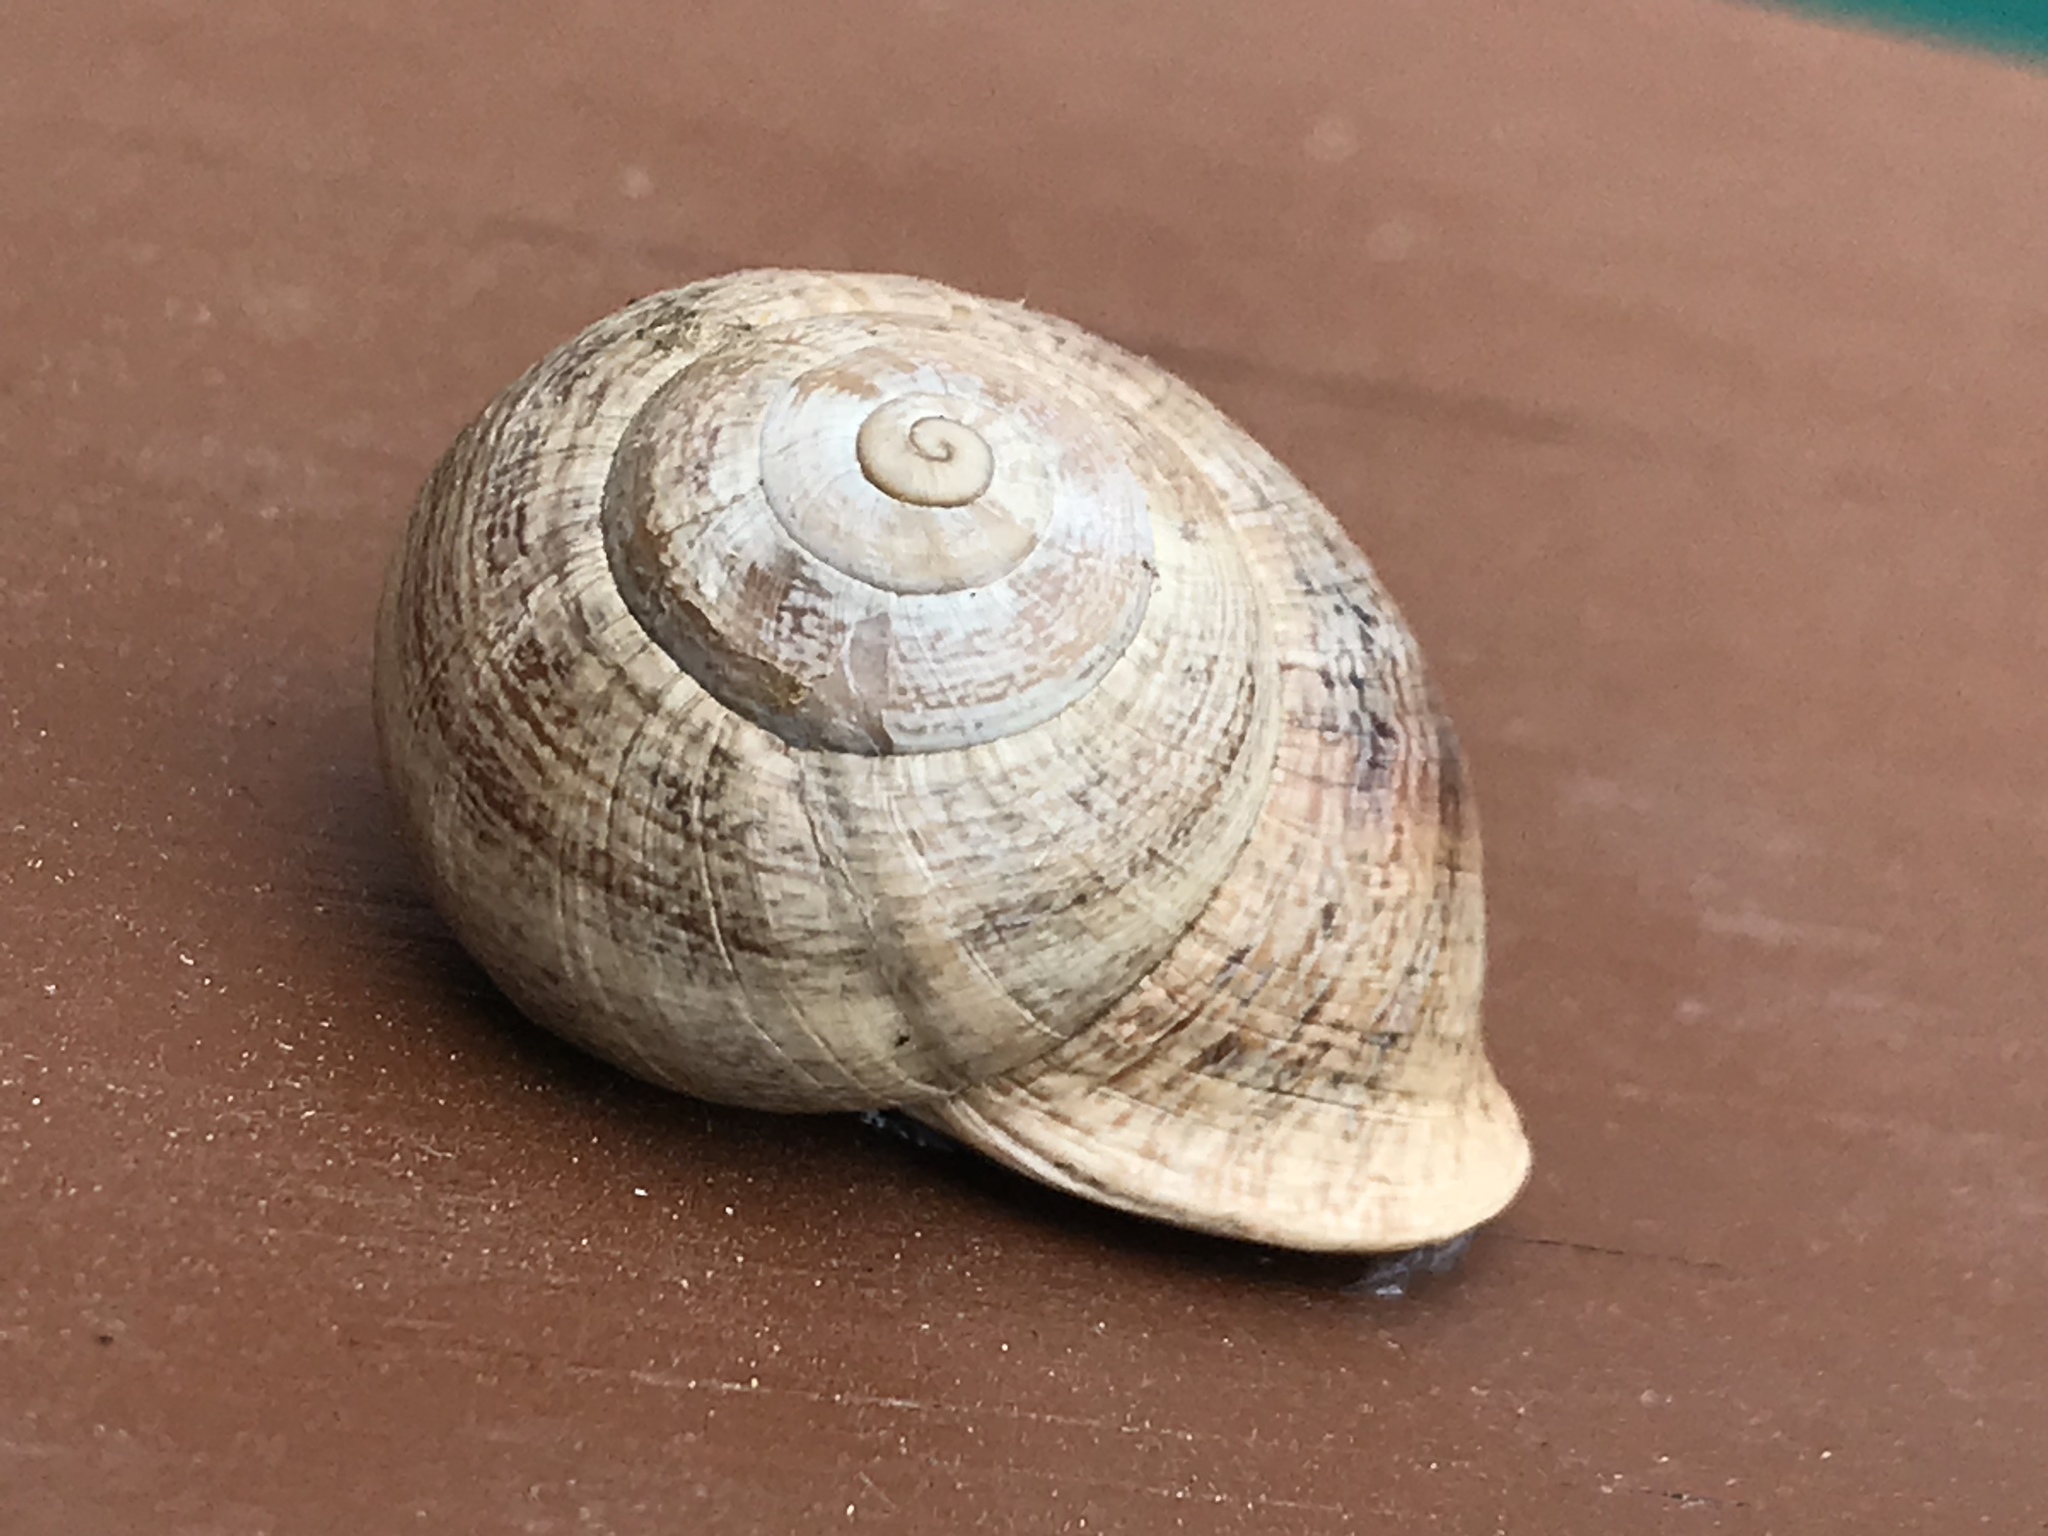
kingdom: Animalia
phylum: Mollusca
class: Gastropoda
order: Stylommatophora
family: Helicidae
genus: Otala
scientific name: Otala lactea
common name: Milk snail
